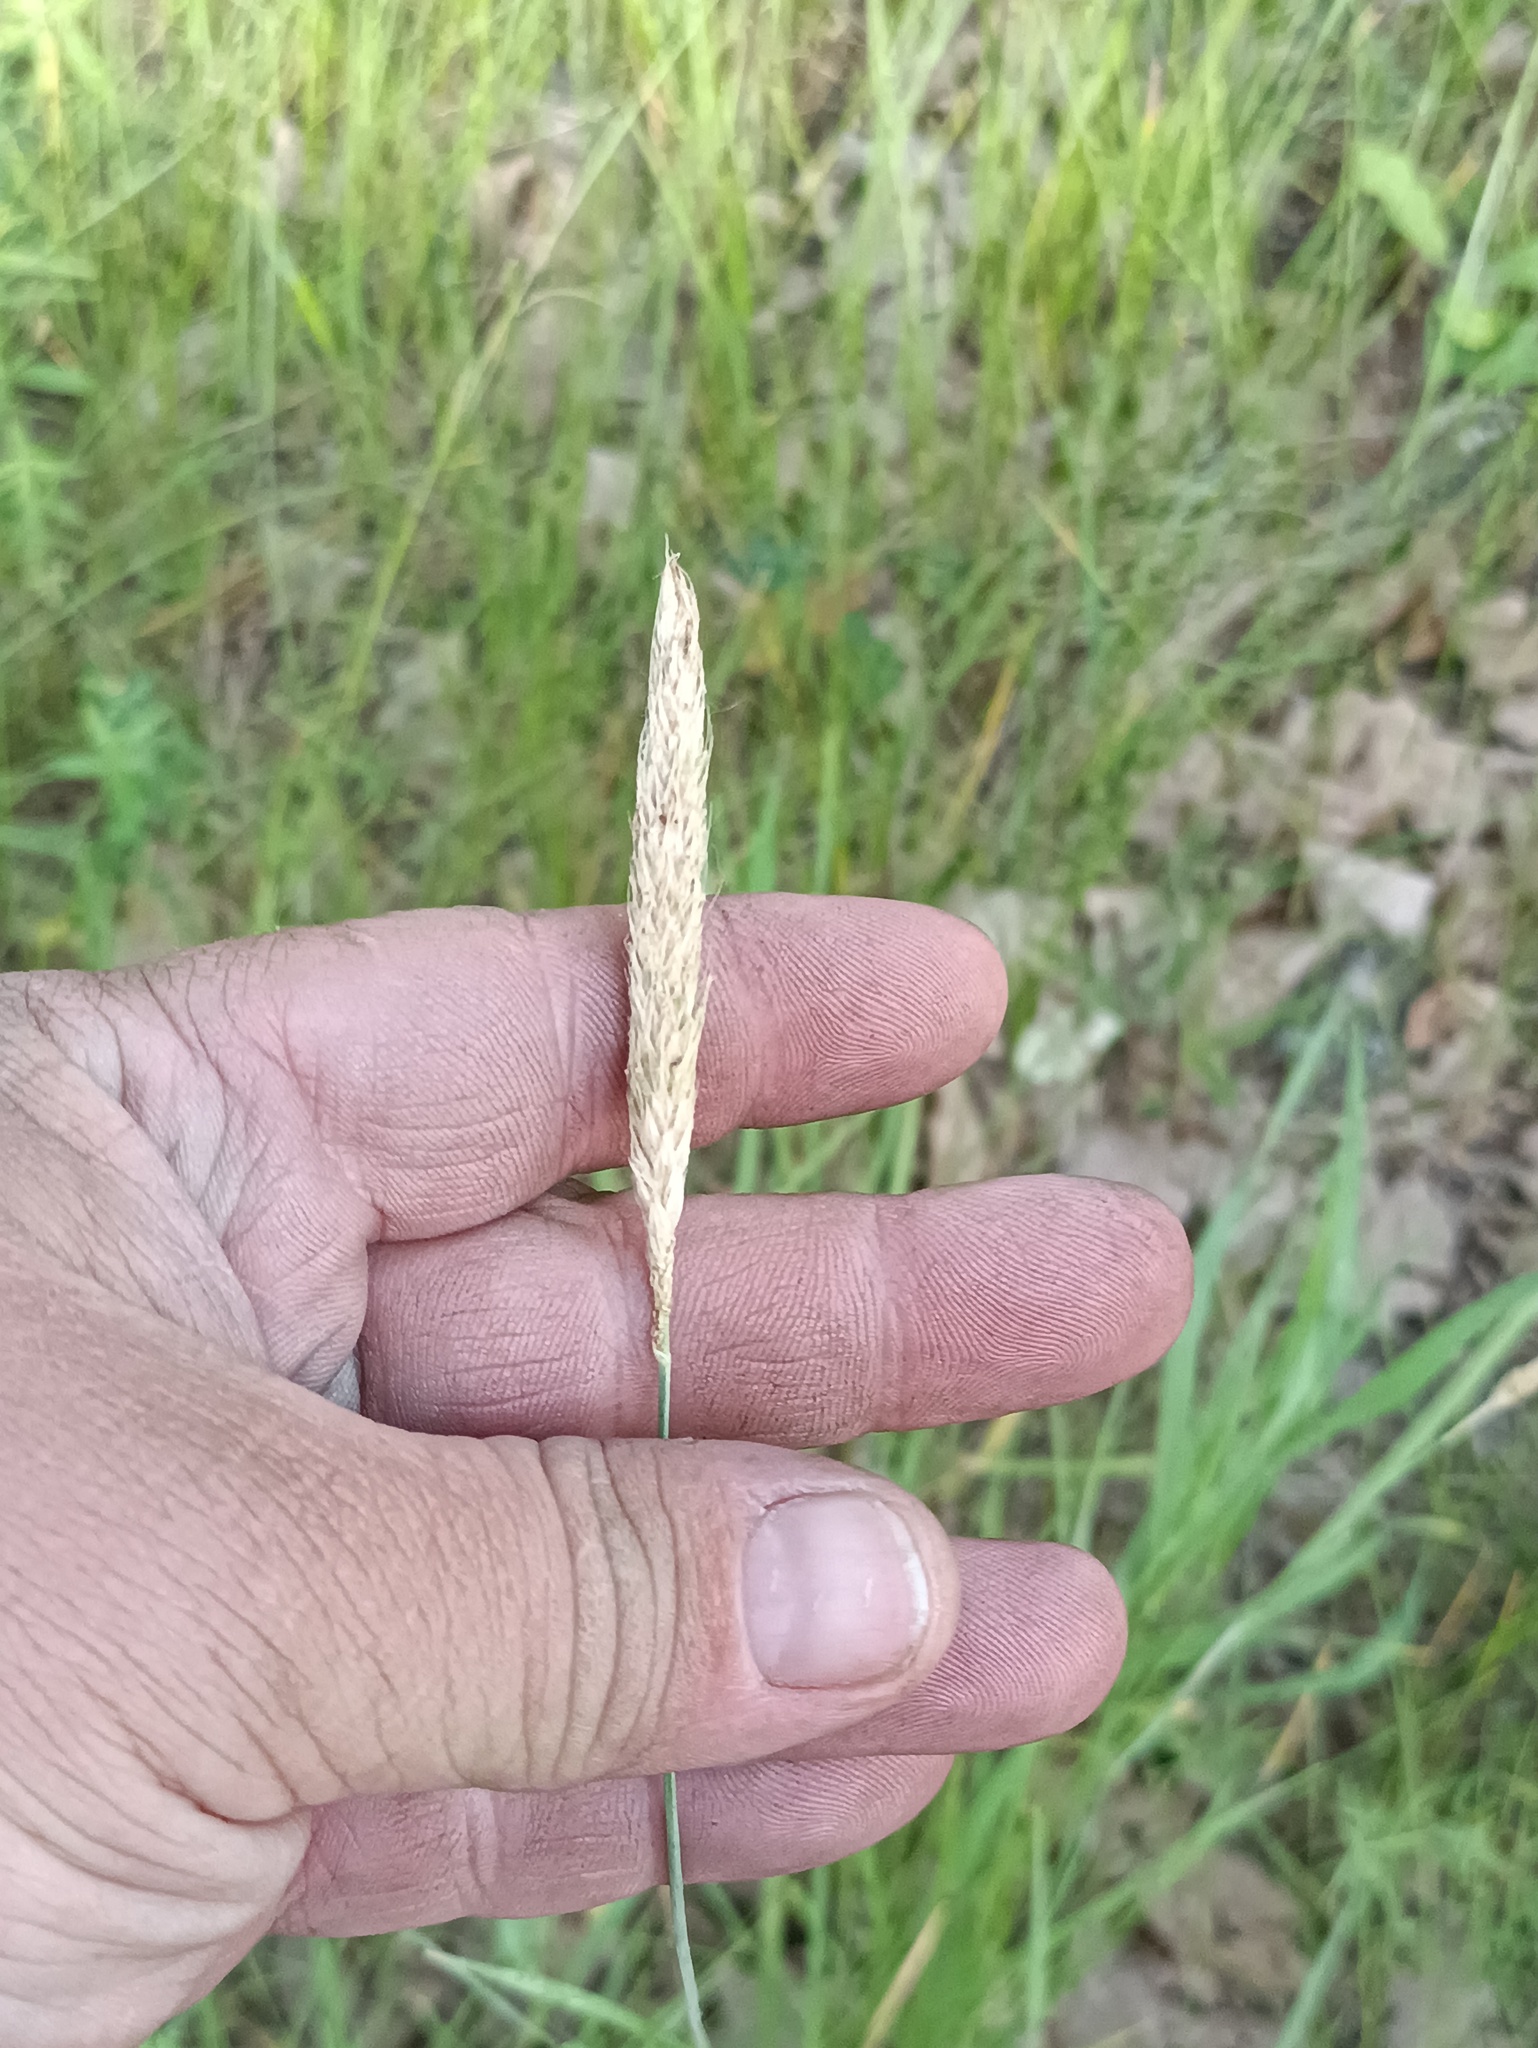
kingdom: Plantae
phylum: Tracheophyta
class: Liliopsida
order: Poales
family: Poaceae
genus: Alopecurus
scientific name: Alopecurus pratensis
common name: Meadow foxtail
